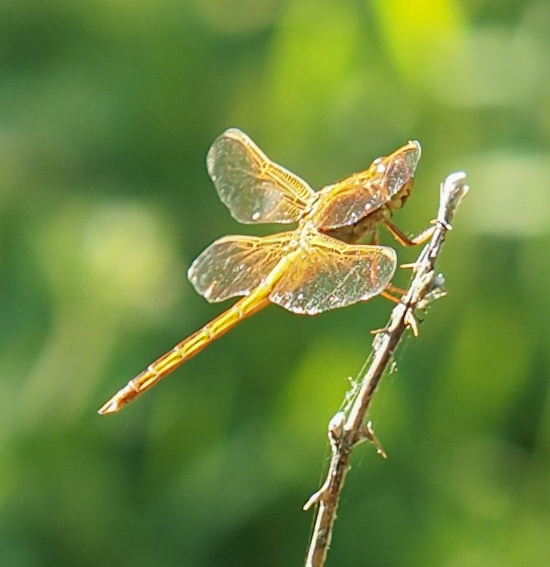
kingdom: Animalia
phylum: Arthropoda
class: Insecta
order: Odonata
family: Libellulidae
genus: Libellula
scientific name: Libellula needhami
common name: Needham's skimmer
